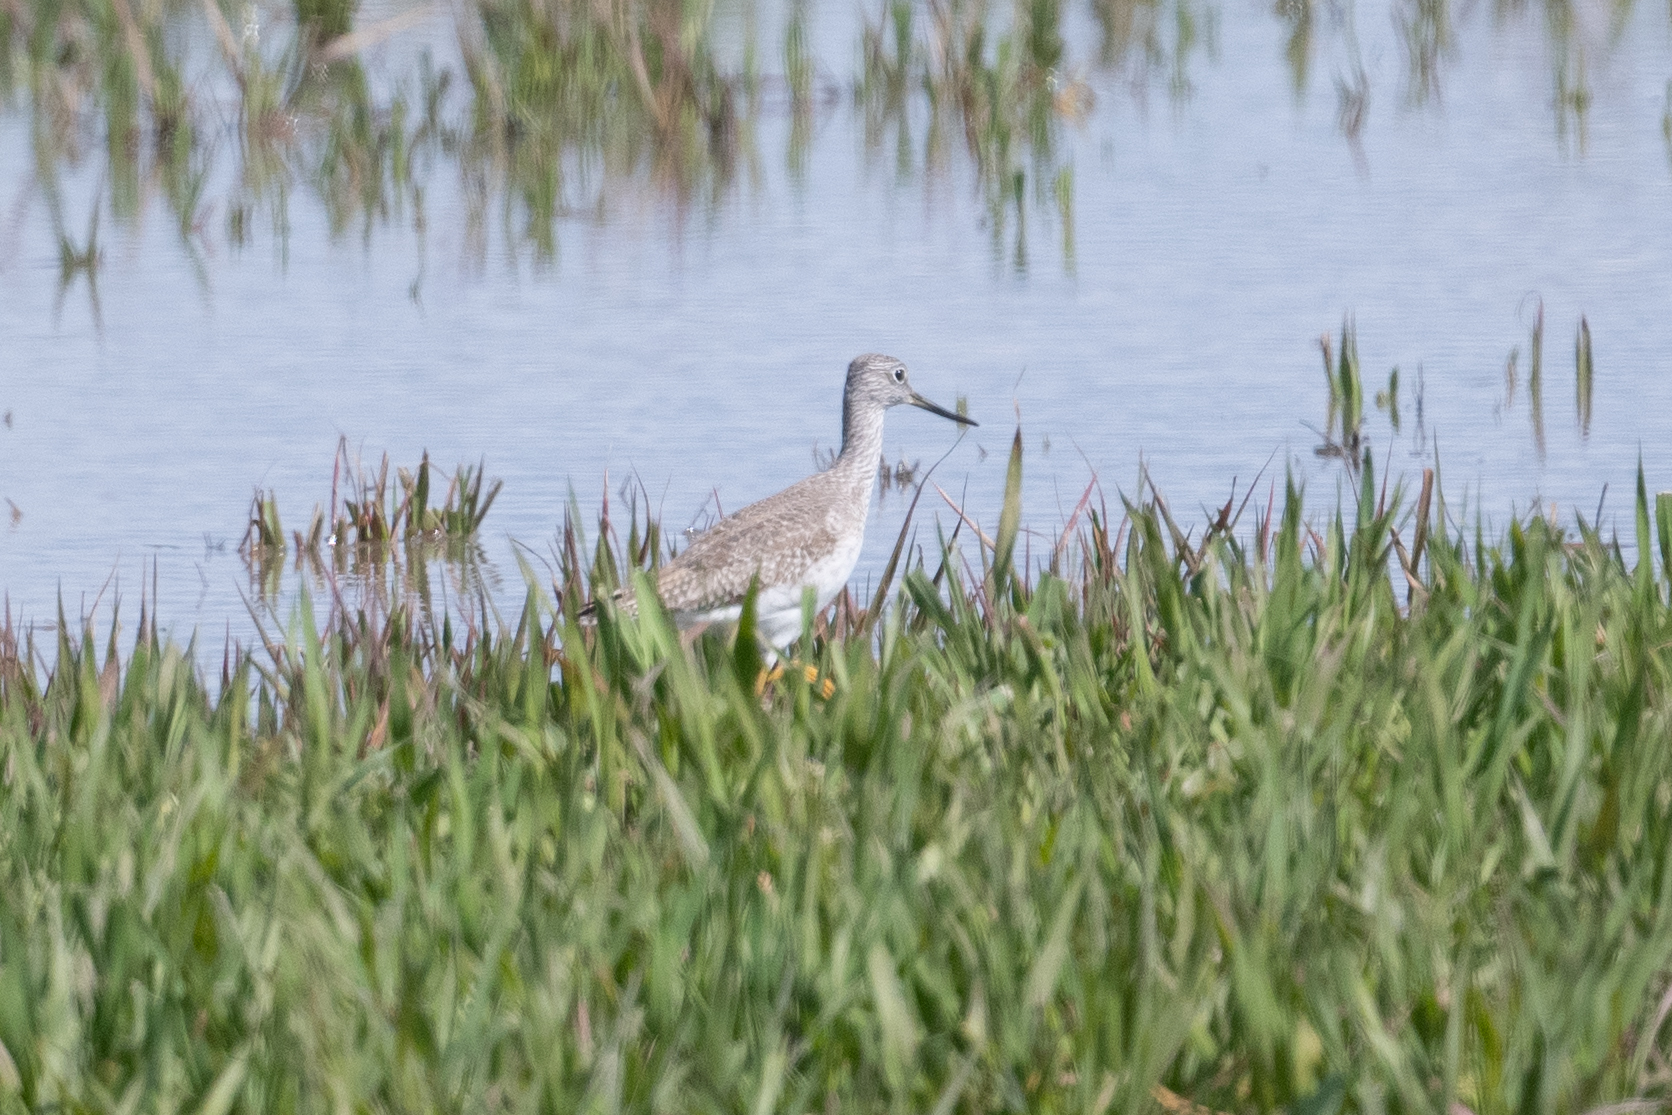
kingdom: Animalia
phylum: Chordata
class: Aves
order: Charadriiformes
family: Scolopacidae
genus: Tringa
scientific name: Tringa melanoleuca
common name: Greater yellowlegs
